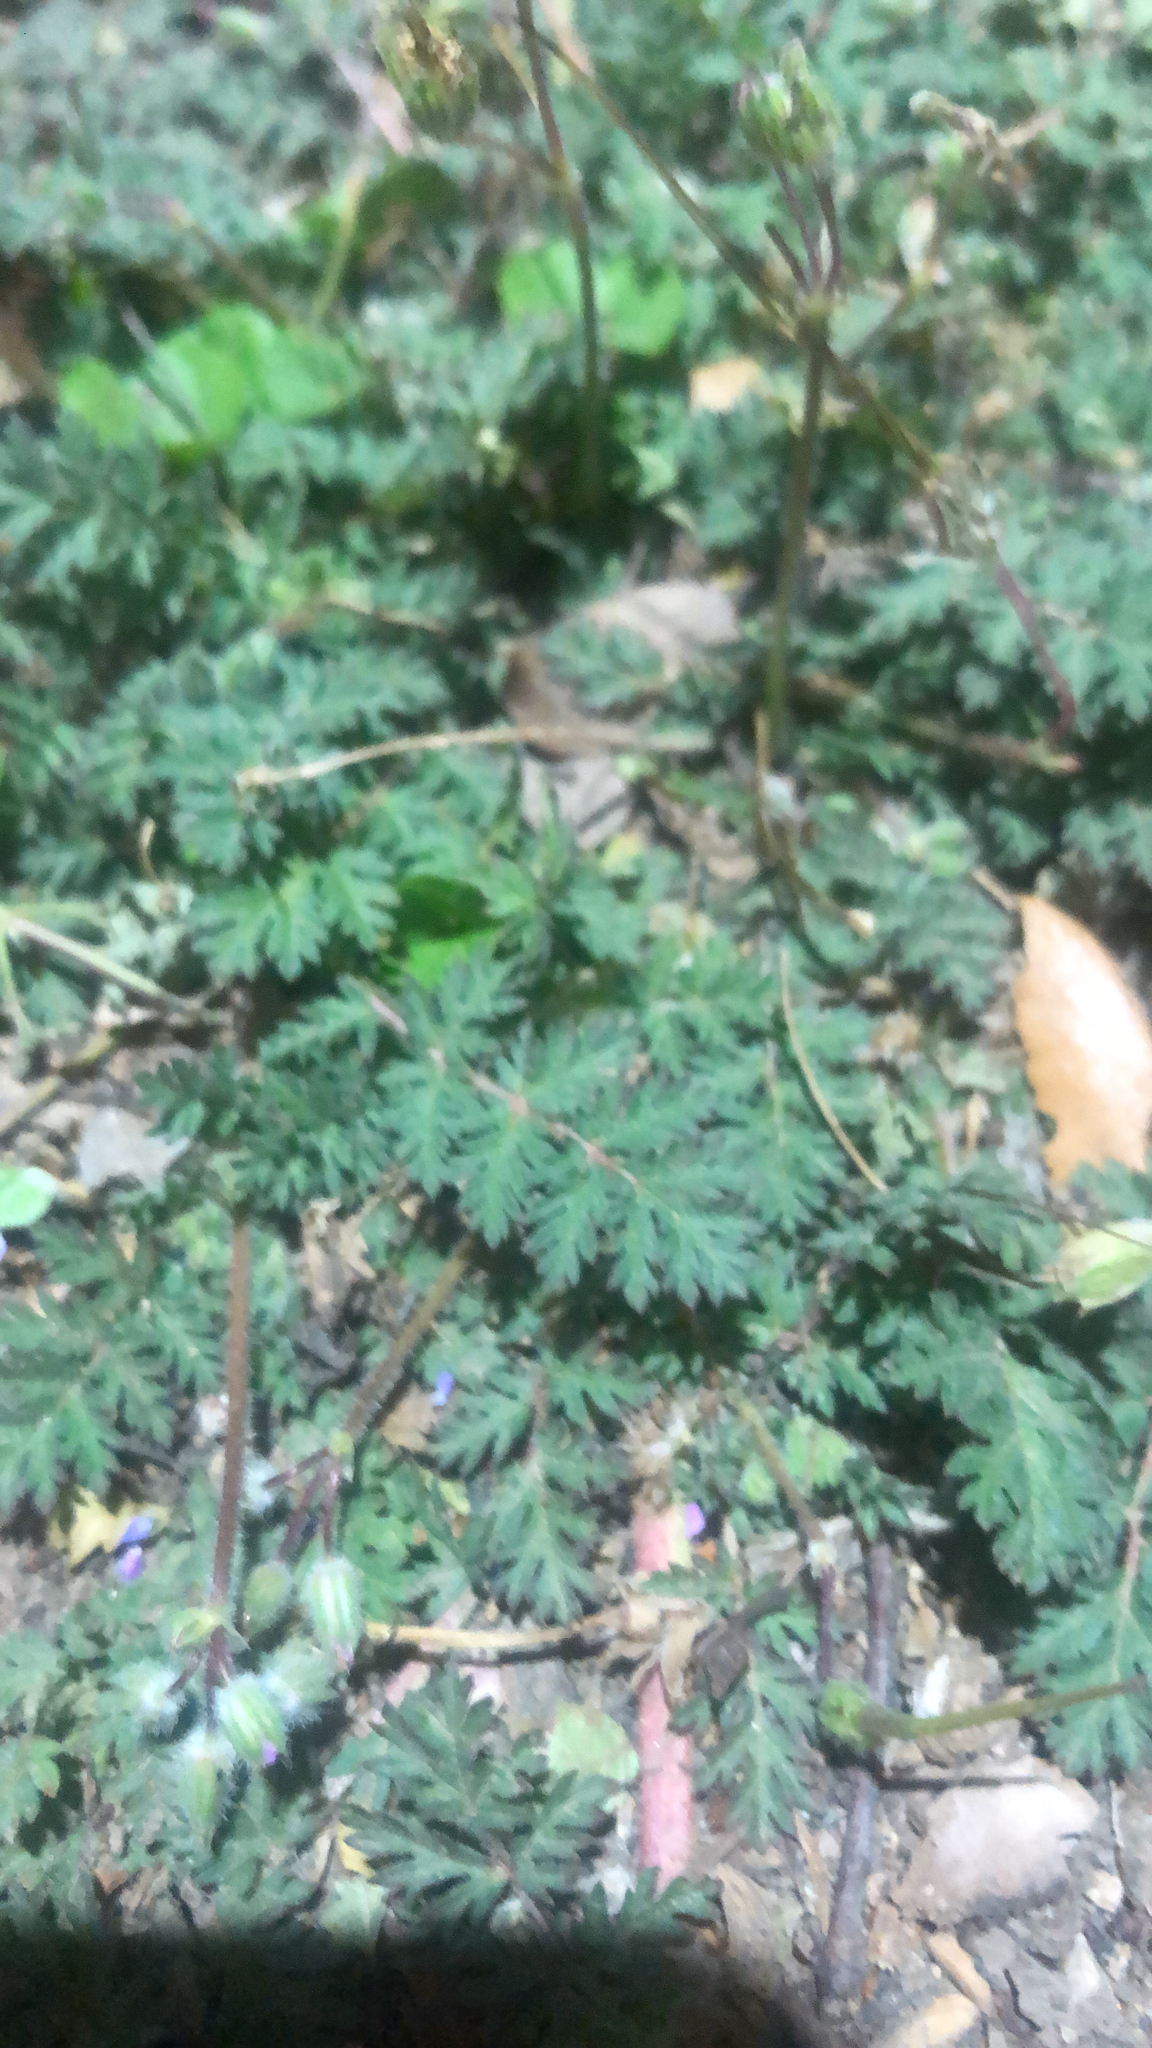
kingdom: Plantae
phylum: Tracheophyta
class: Magnoliopsida
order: Geraniales
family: Geraniaceae
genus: Erodium
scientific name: Erodium cicutarium
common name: Common stork's-bill
